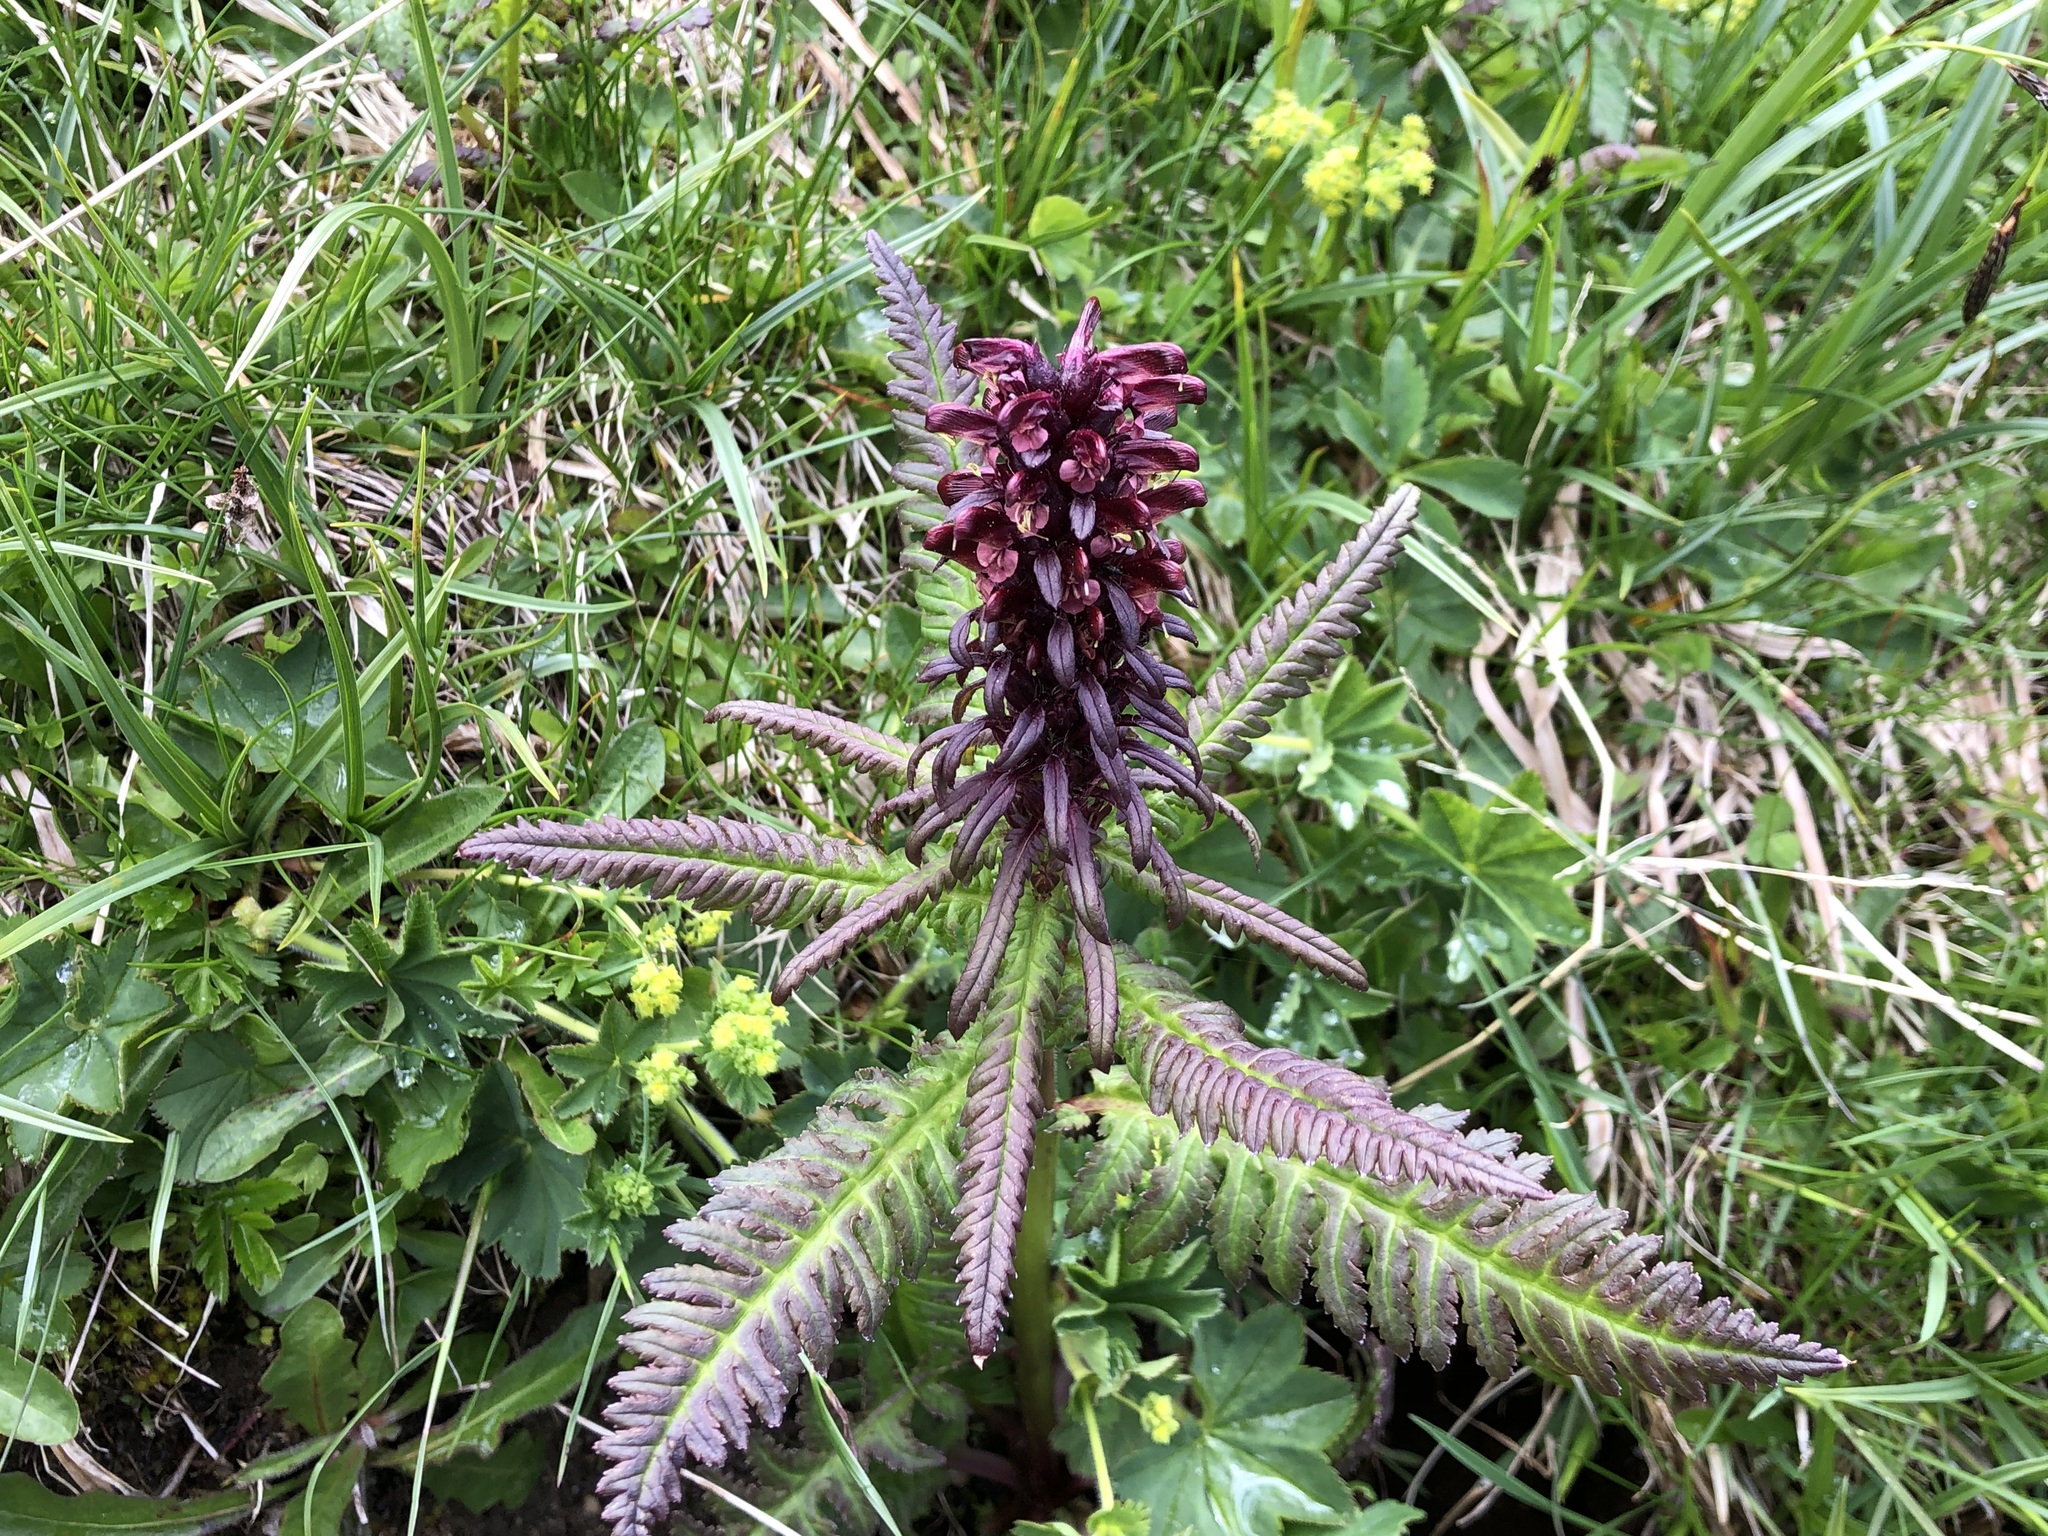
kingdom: Plantae
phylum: Tracheophyta
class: Magnoliopsida
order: Lamiales
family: Orobanchaceae
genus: Pedicularis
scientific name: Pedicularis recutita
